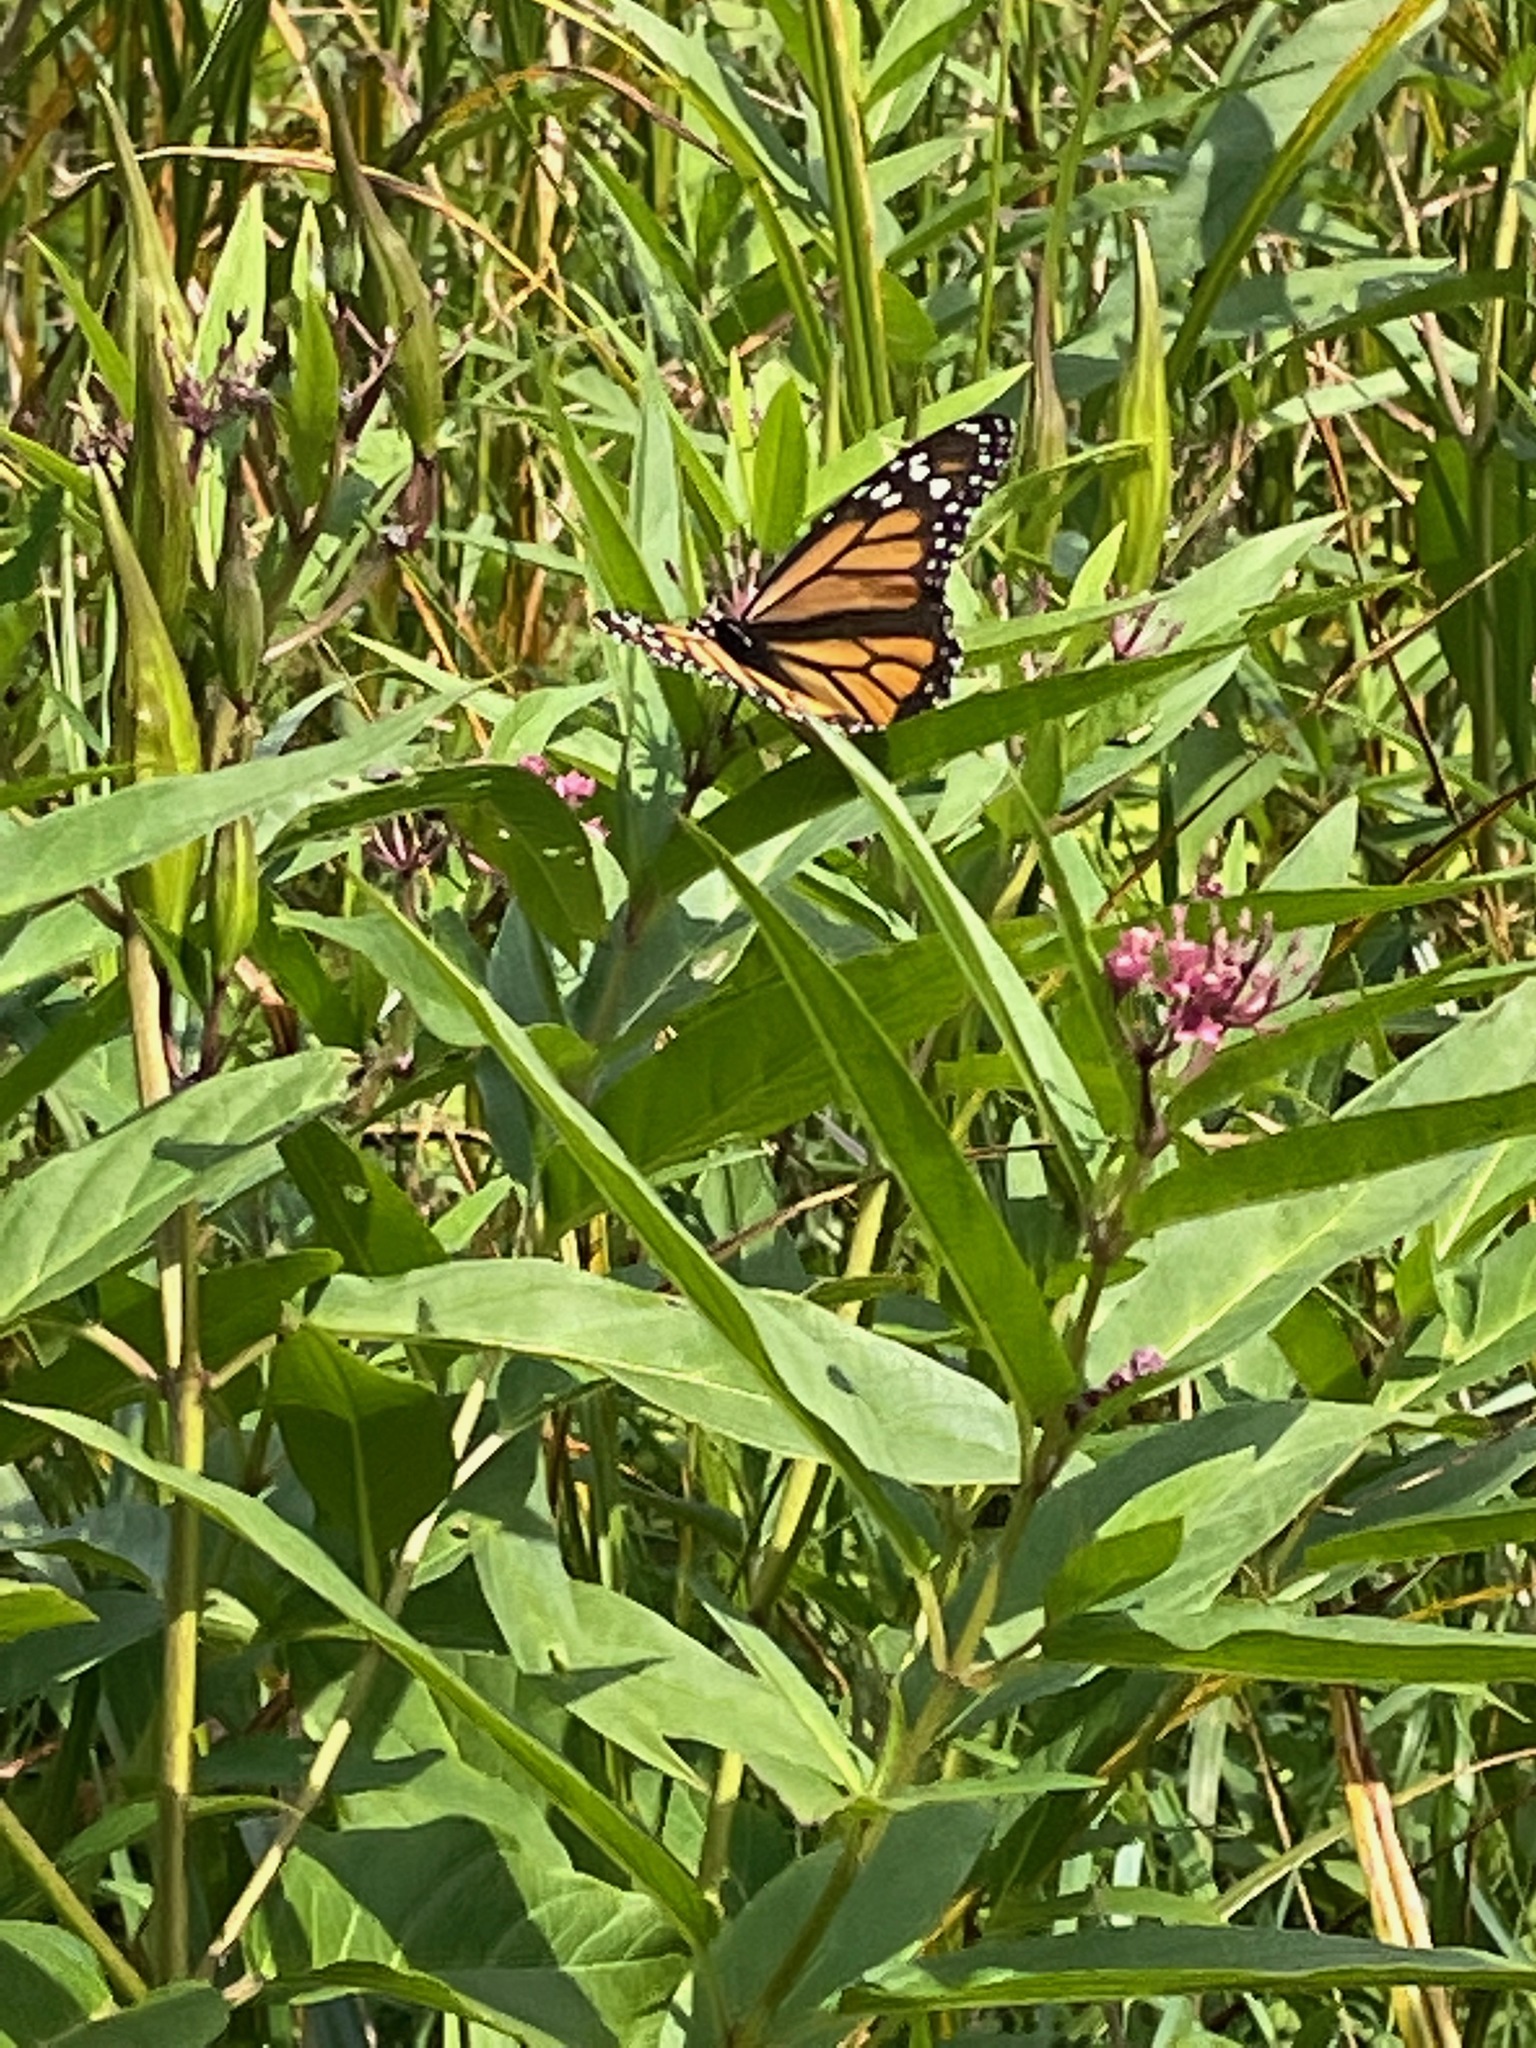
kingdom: Animalia
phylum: Arthropoda
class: Insecta
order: Lepidoptera
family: Nymphalidae
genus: Danaus
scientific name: Danaus plexippus
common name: Monarch
